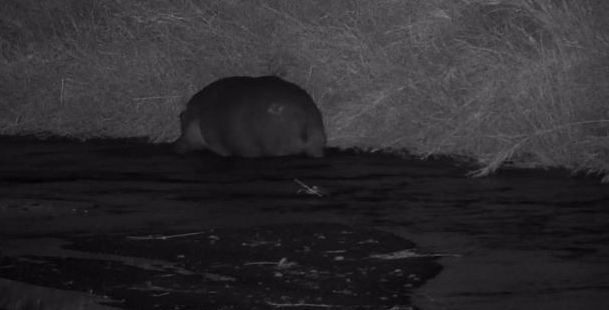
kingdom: Animalia
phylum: Chordata
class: Mammalia
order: Artiodactyla
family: Hippopotamidae
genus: Hippopotamus
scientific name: Hippopotamus amphibius
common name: Common hippopotamus
